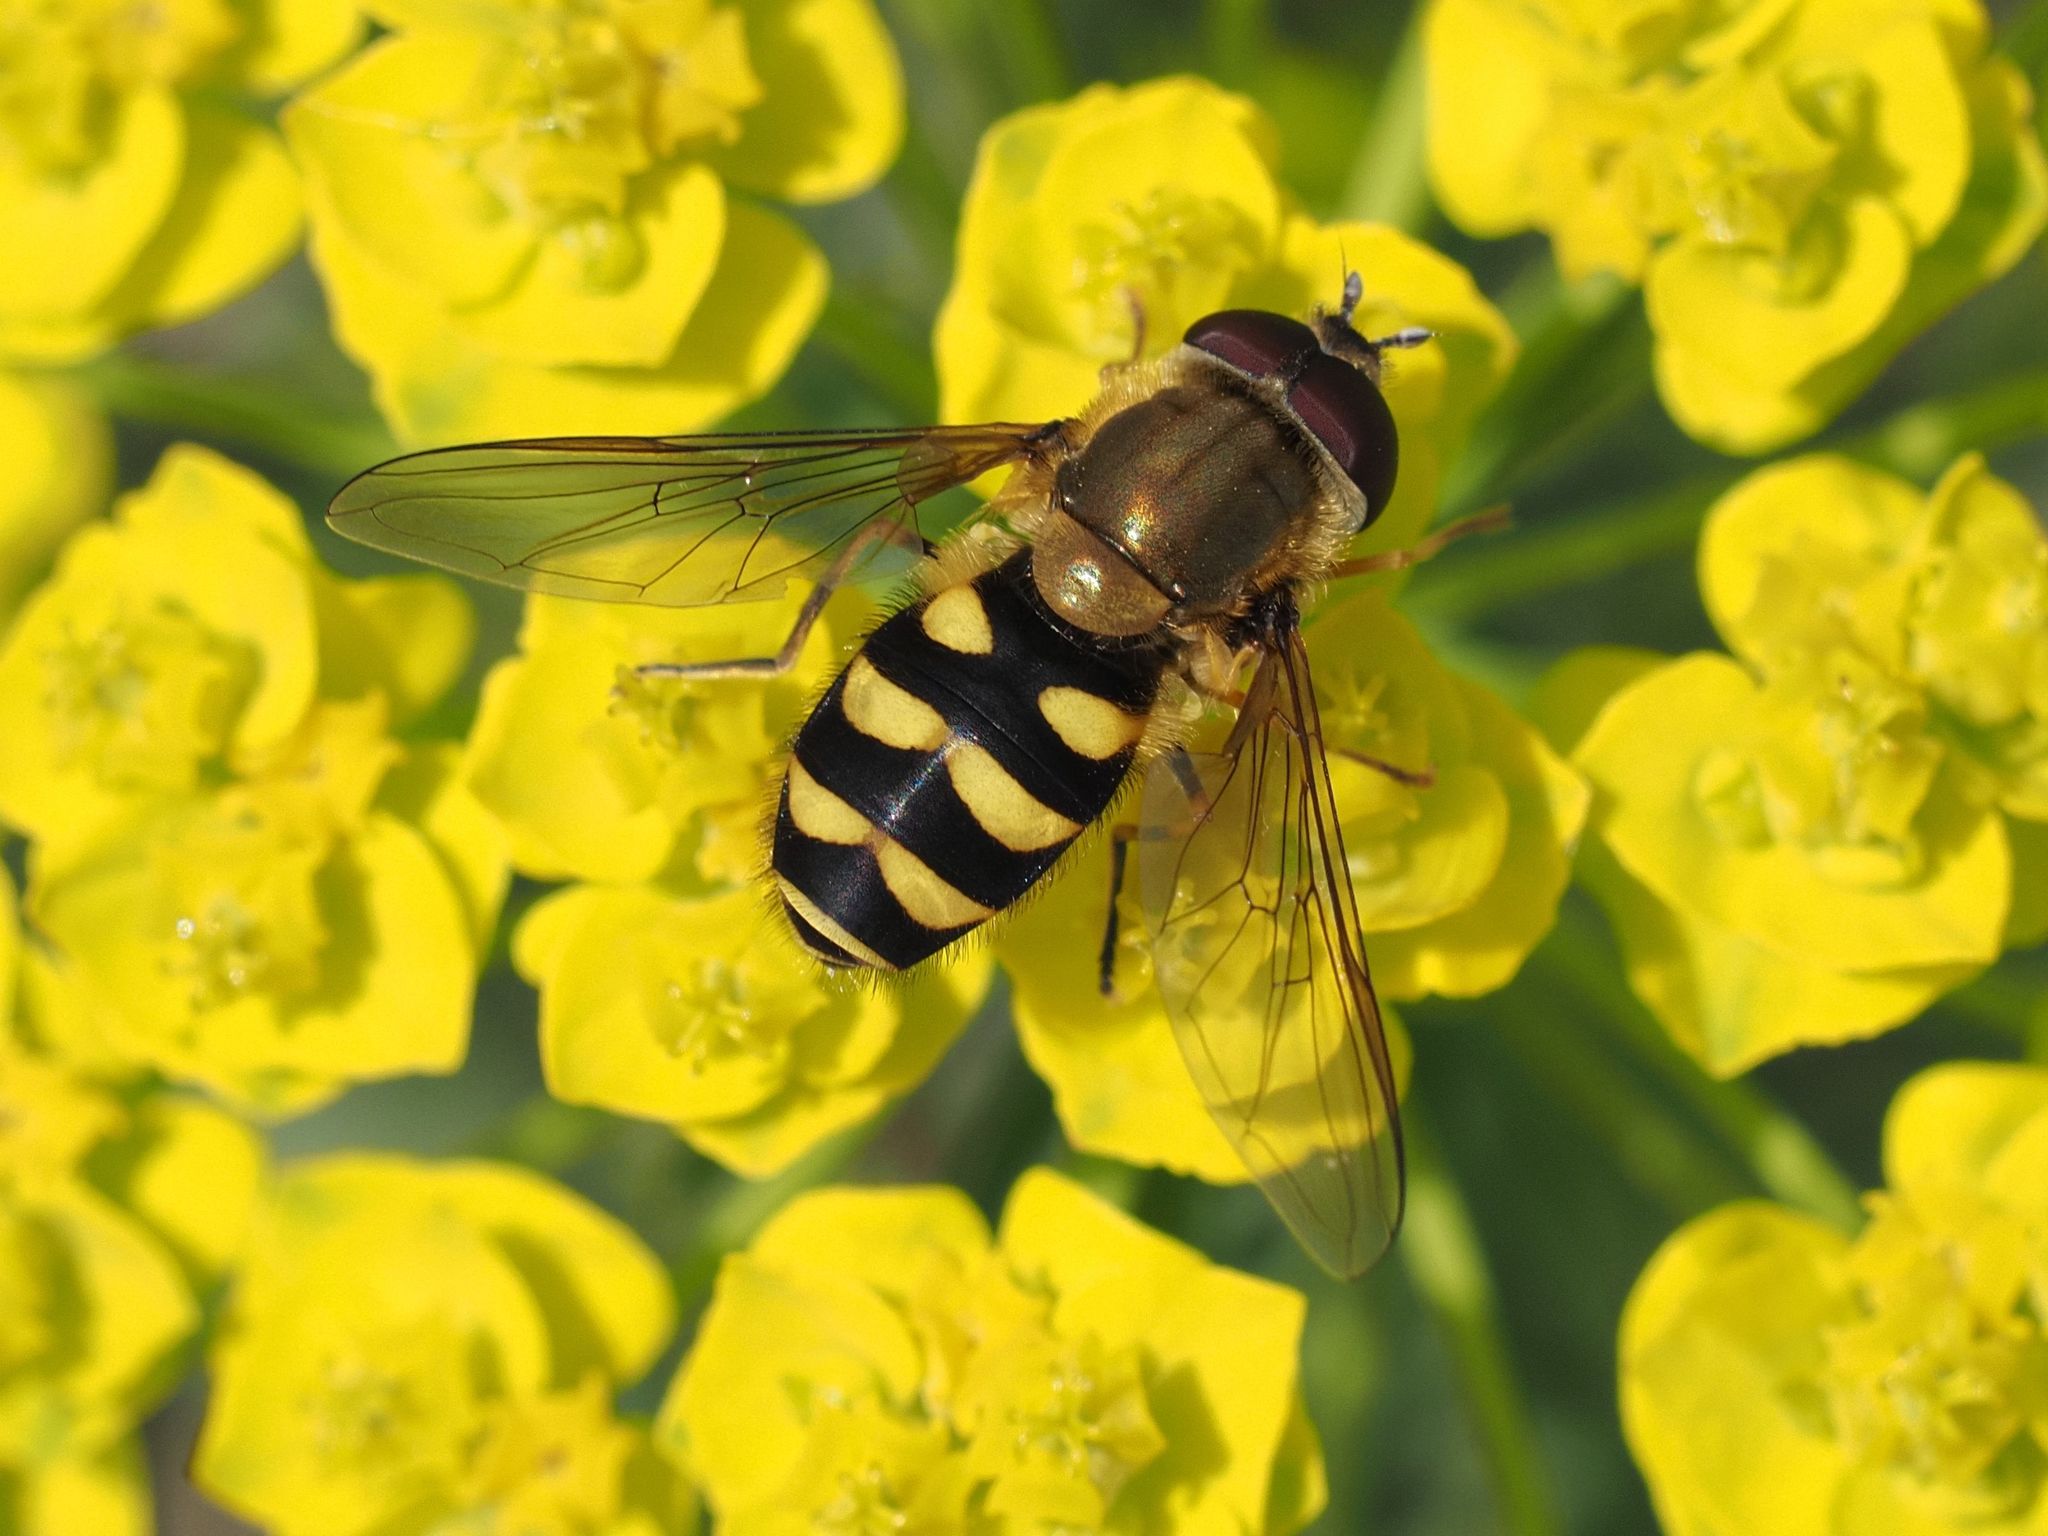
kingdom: Animalia
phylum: Arthropoda
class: Insecta
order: Diptera
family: Syrphidae
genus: Syrphus
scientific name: Syrphus
